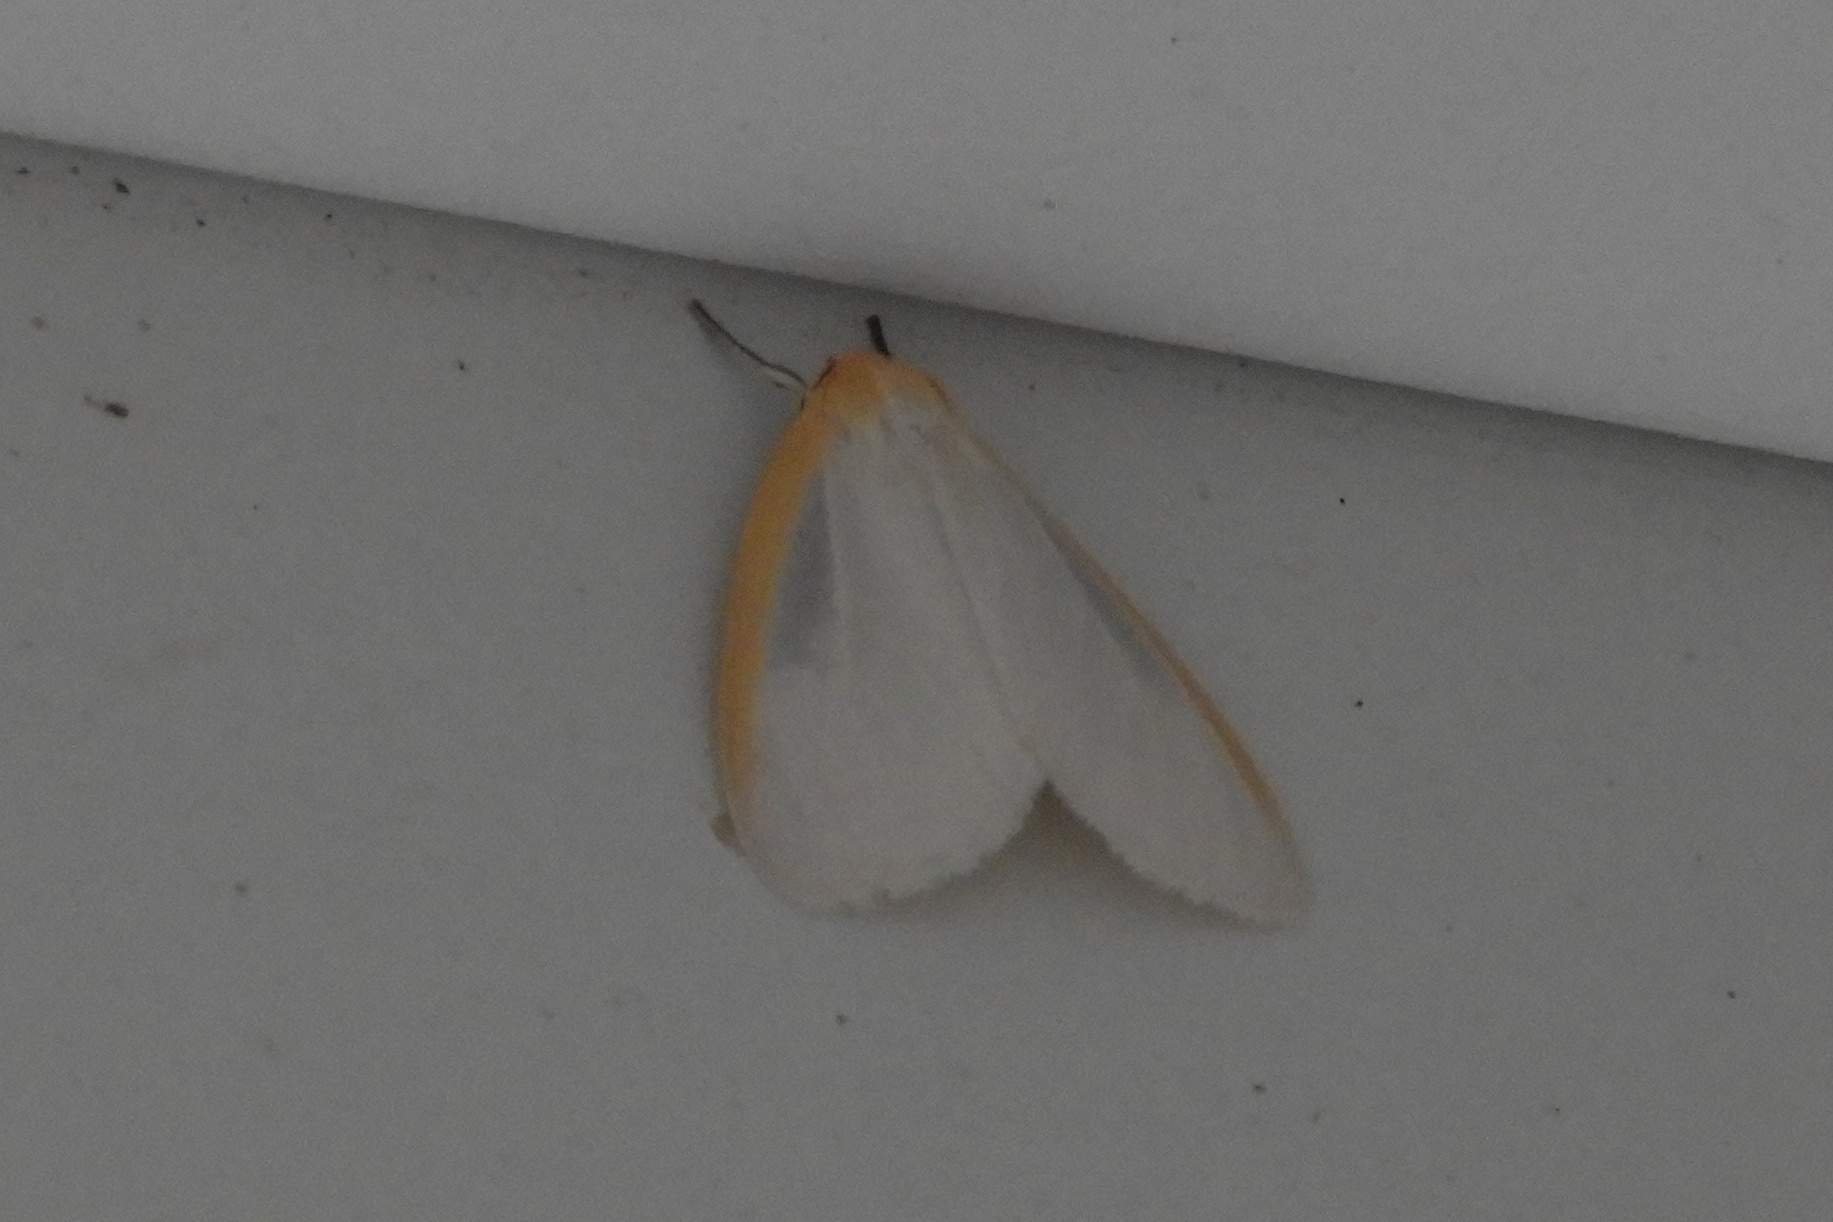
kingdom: Animalia
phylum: Arthropoda
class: Insecta
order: Lepidoptera
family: Erebidae
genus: Cycnia
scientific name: Cycnia tenera
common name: Delicate cycnia moth
